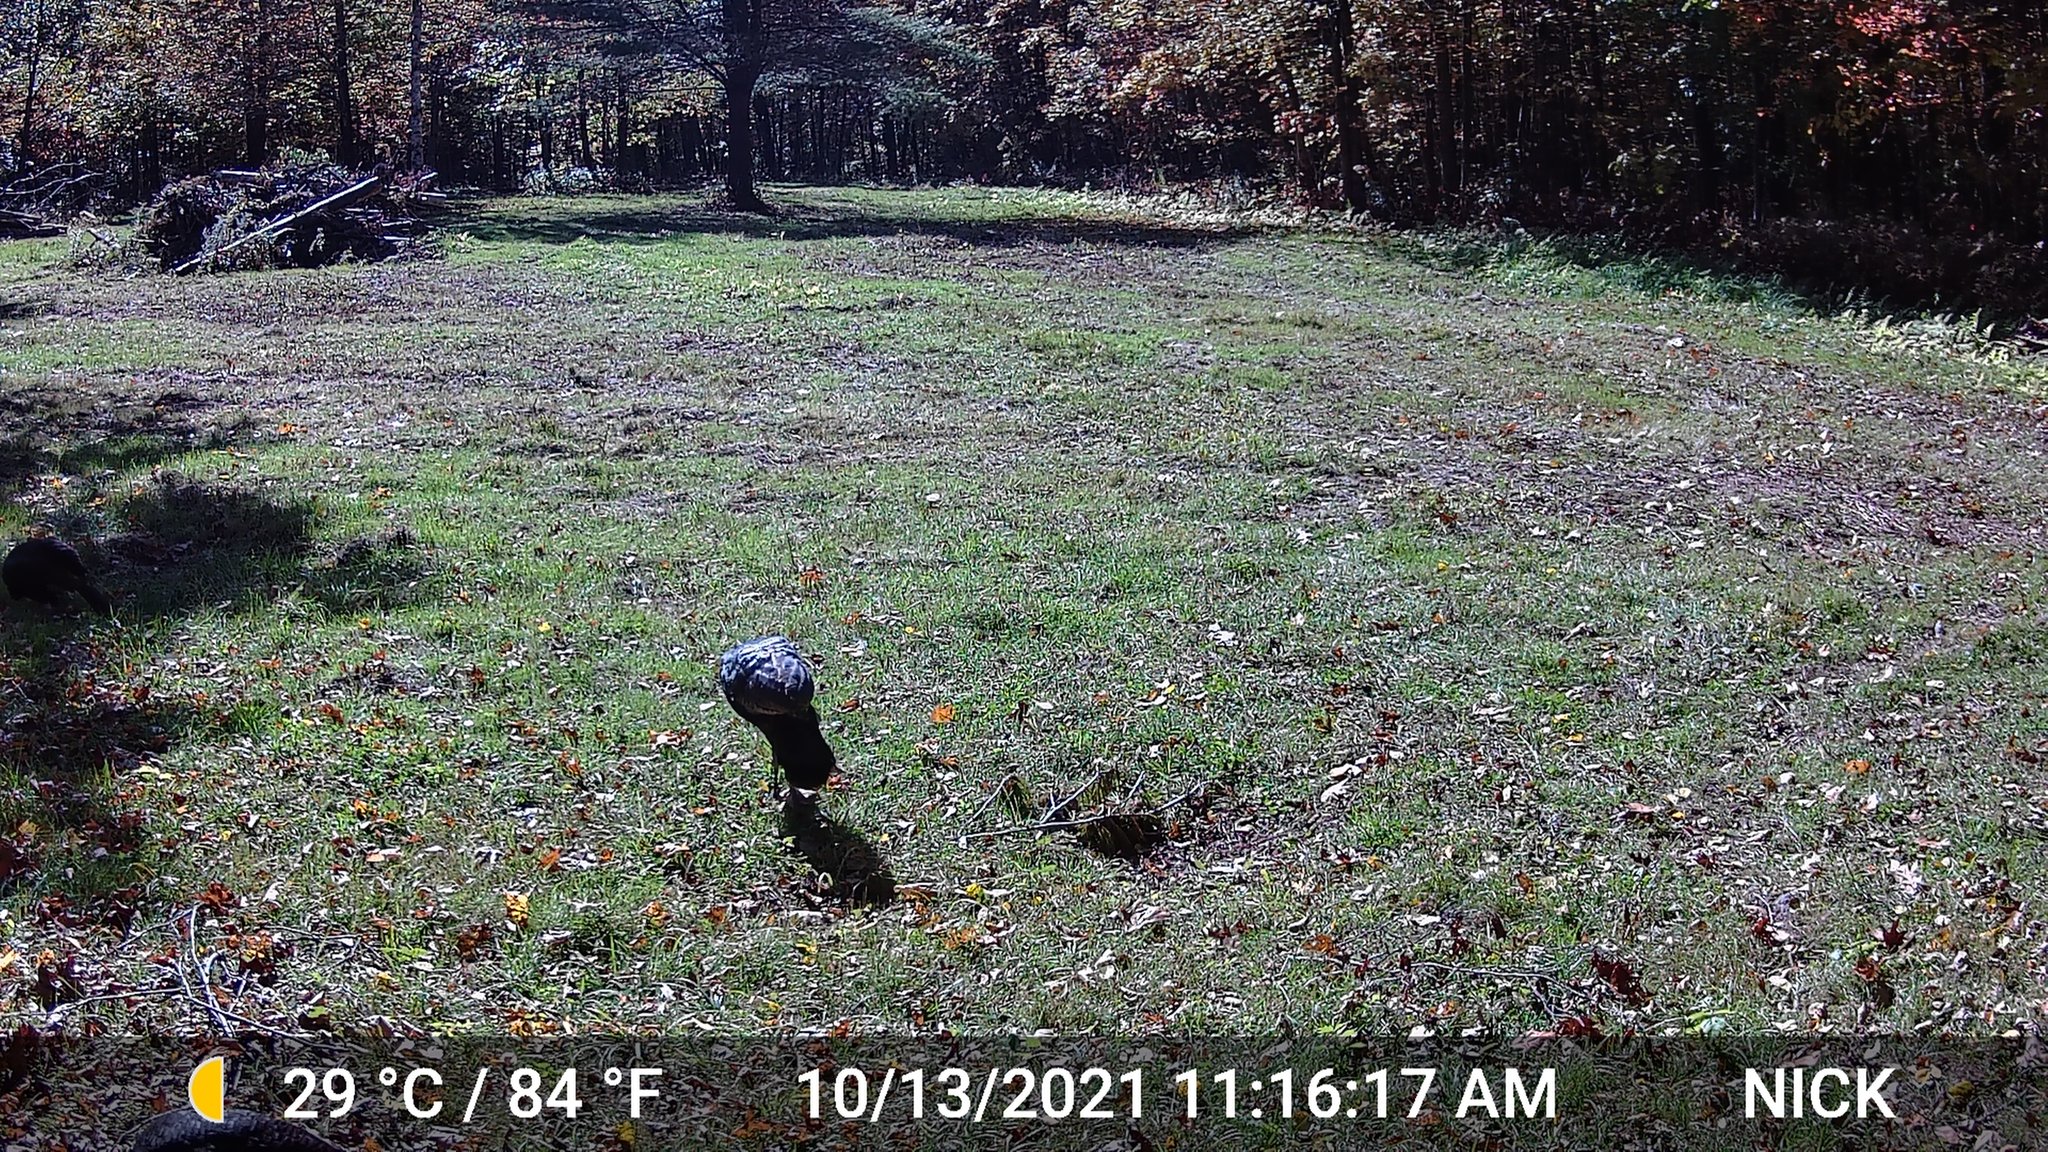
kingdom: Animalia
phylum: Chordata
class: Aves
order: Galliformes
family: Phasianidae
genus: Meleagris
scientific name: Meleagris gallopavo
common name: Wild turkey
